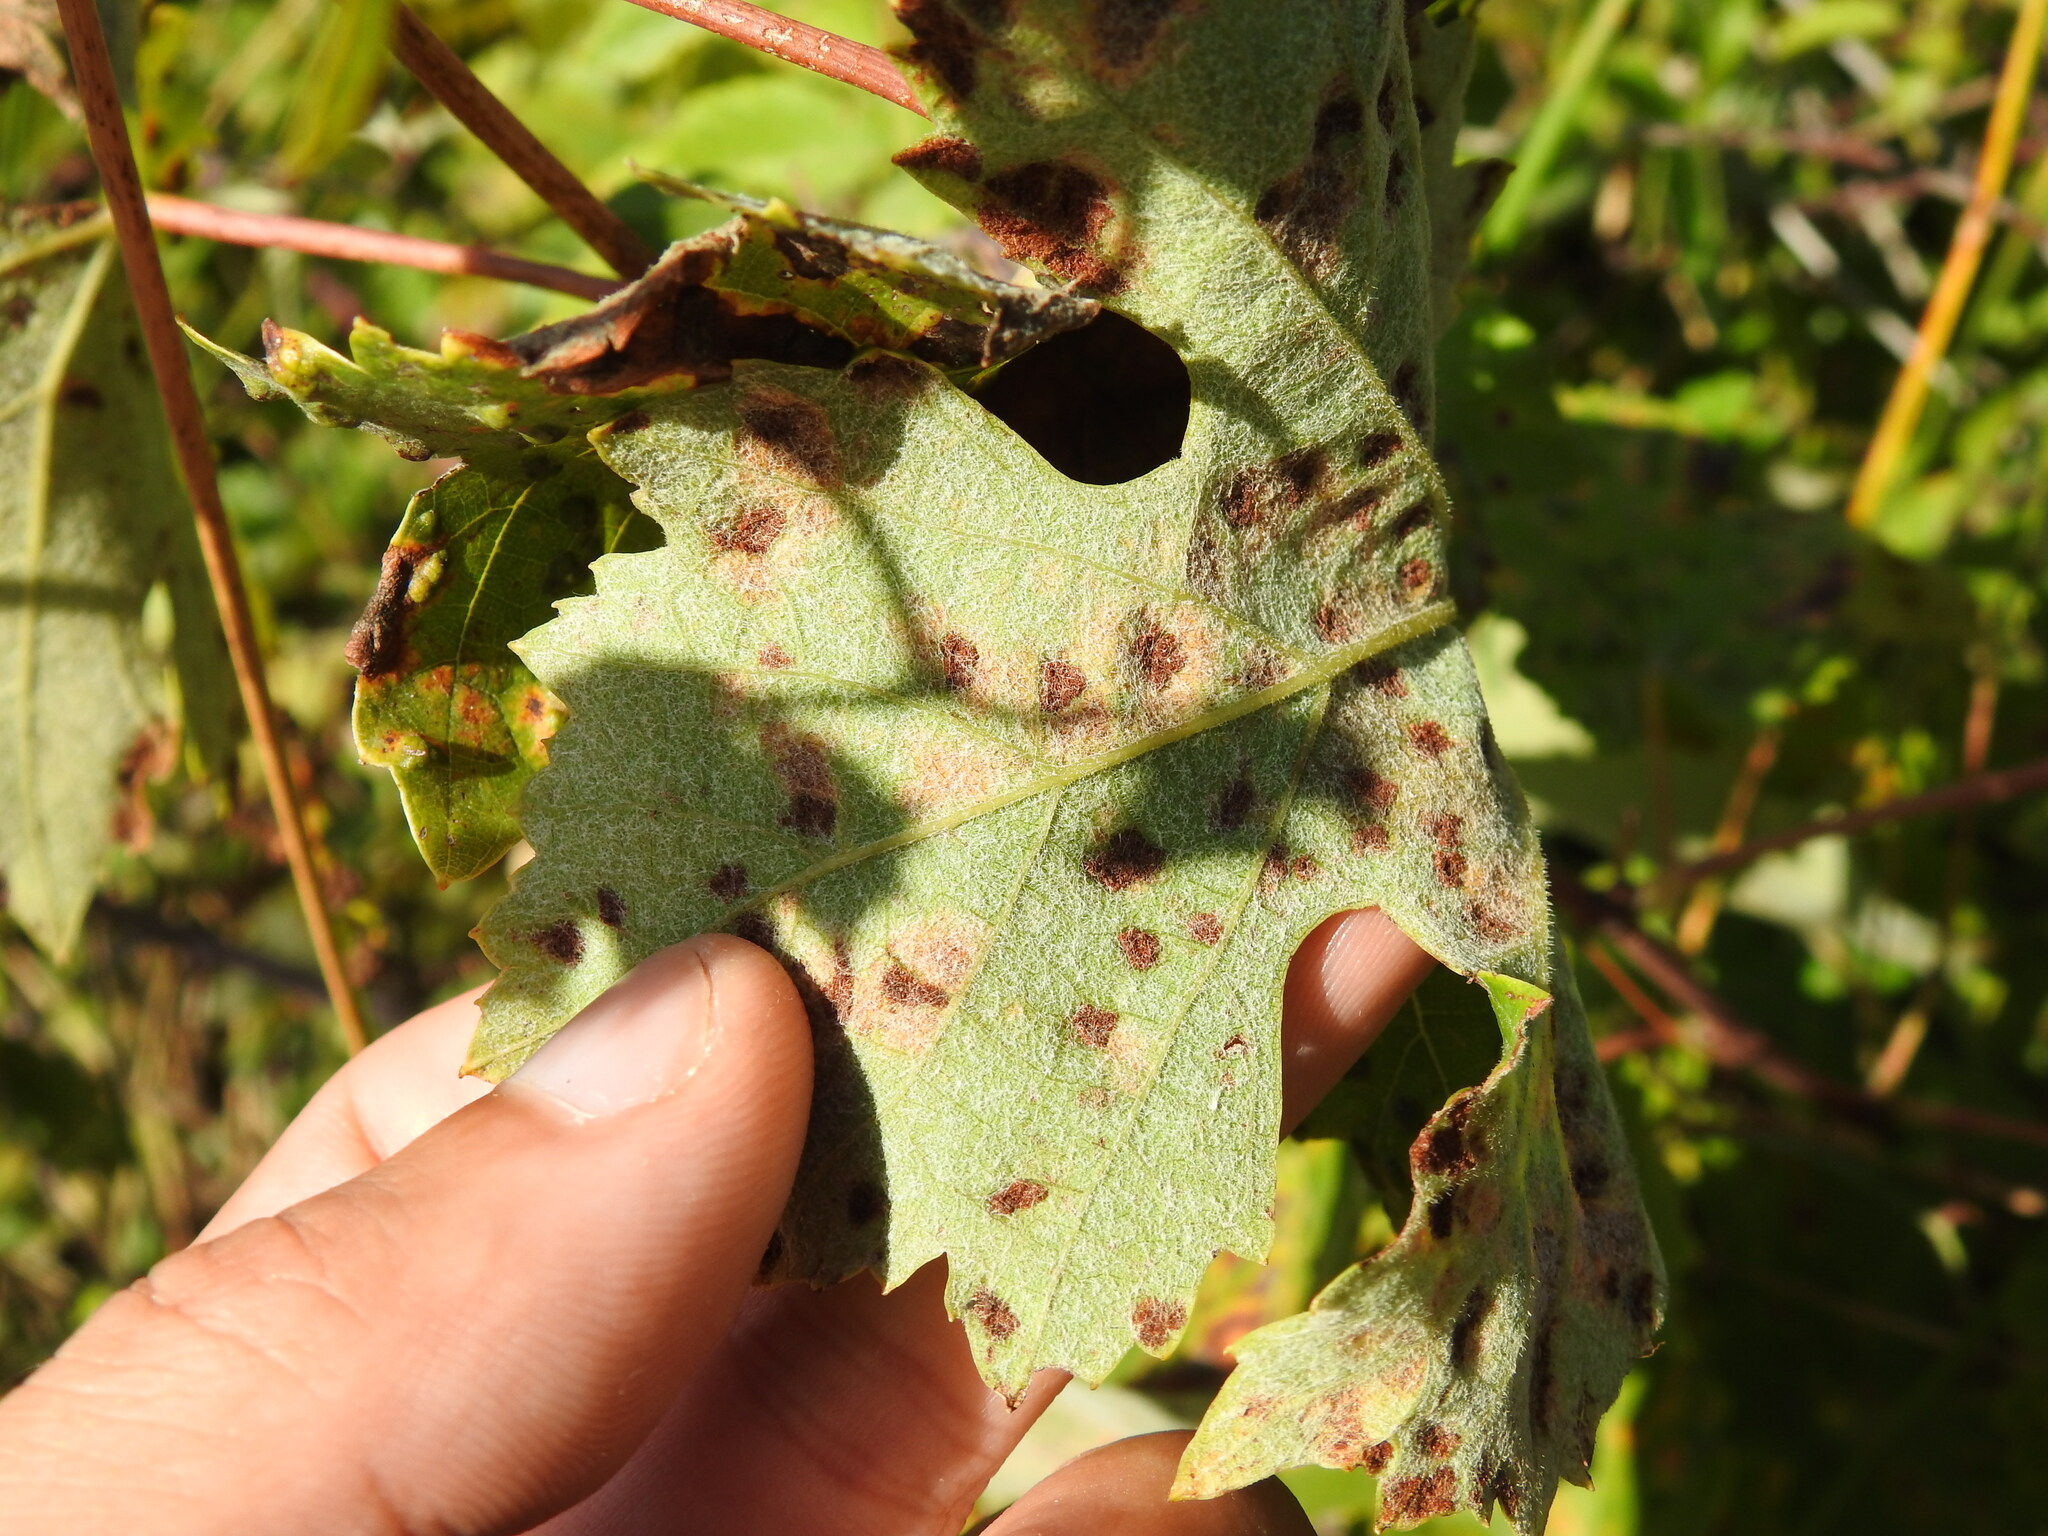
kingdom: Animalia
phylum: Arthropoda
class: Arachnida
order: Trombidiformes
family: Eriophyidae
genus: Colomerus
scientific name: Colomerus vitis
